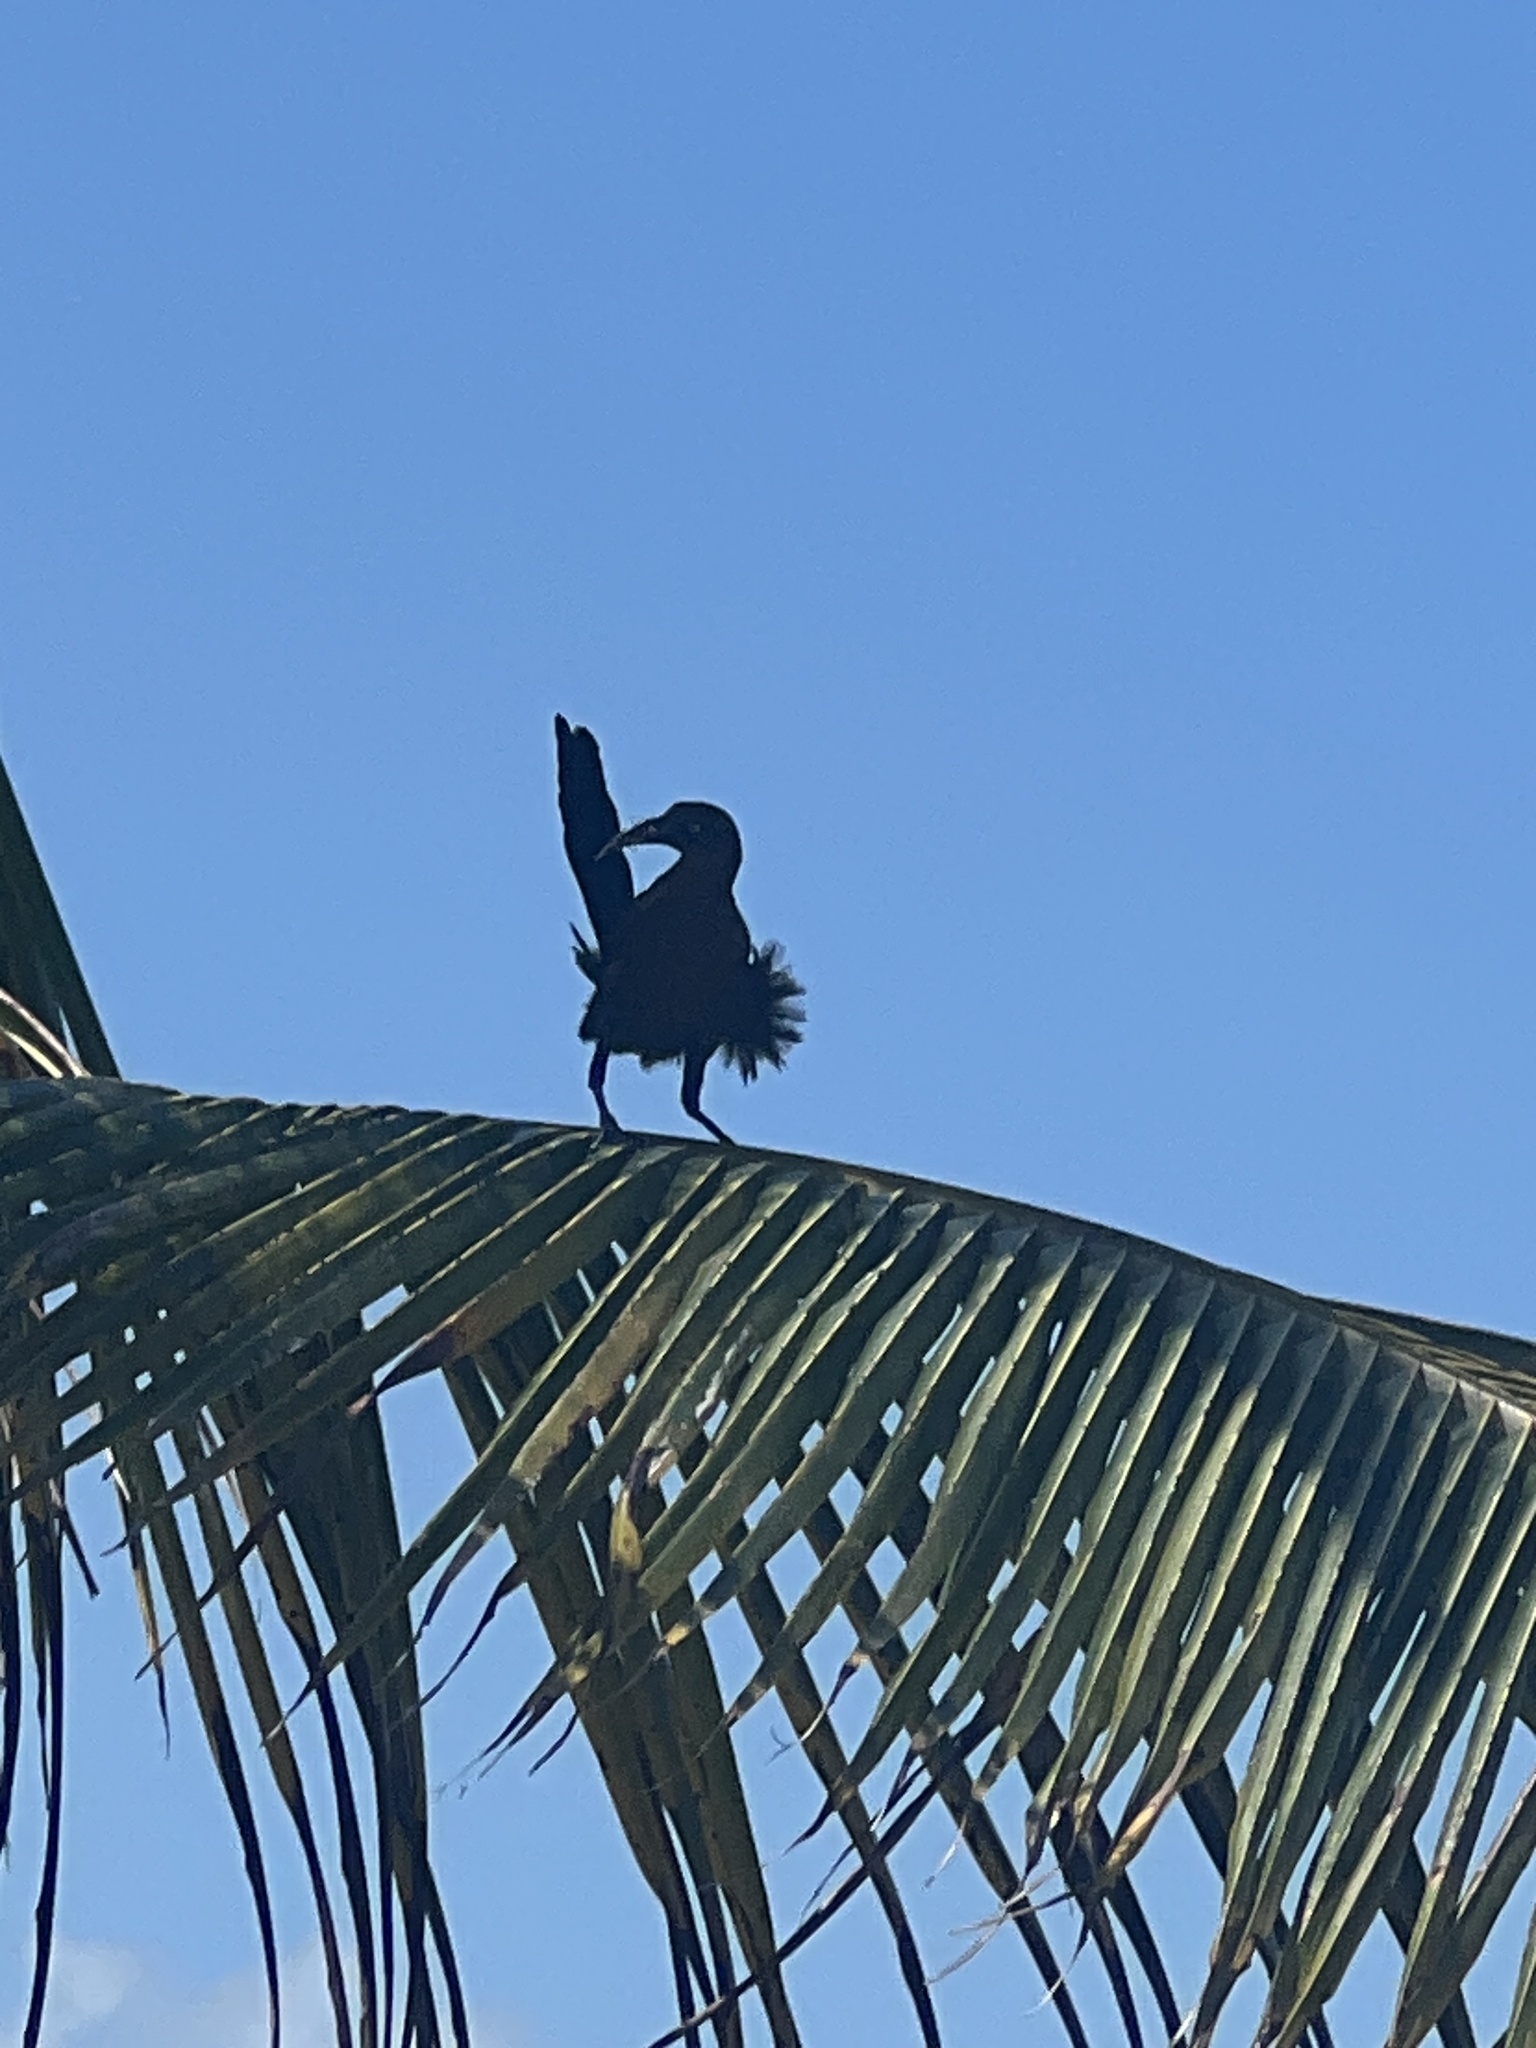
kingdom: Animalia
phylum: Chordata
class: Aves
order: Passeriformes
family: Icteridae
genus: Quiscalus
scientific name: Quiscalus mexicanus
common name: Great-tailed grackle
